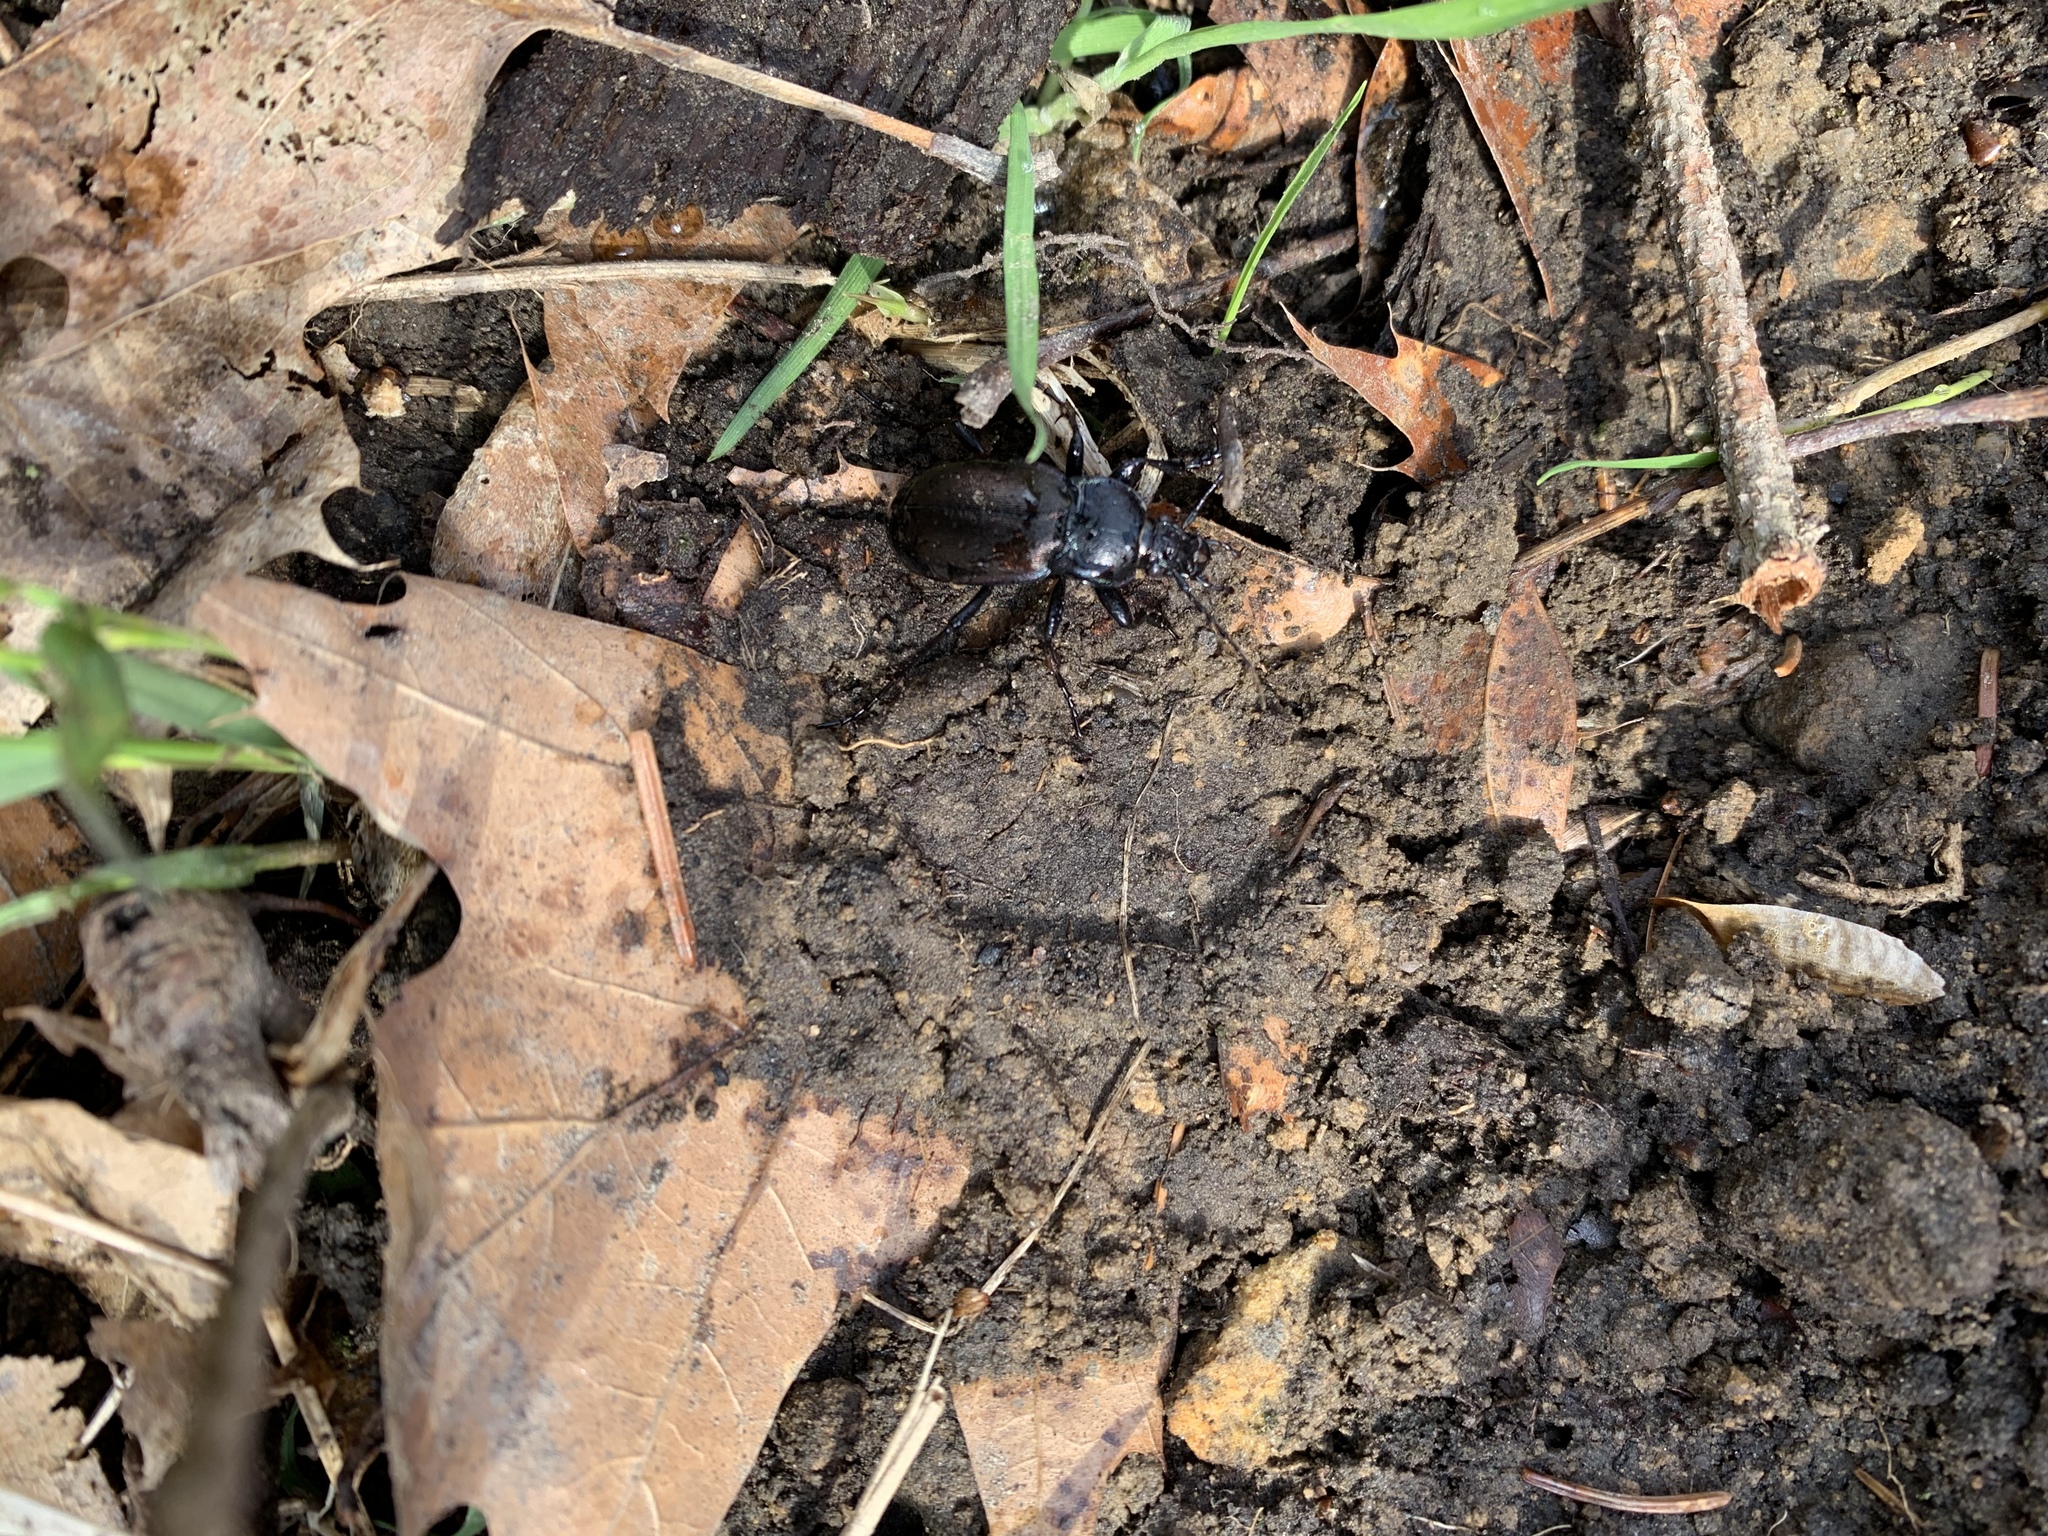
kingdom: Animalia
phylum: Arthropoda
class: Insecta
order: Coleoptera
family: Carabidae
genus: Carabus
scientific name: Carabus nemoralis
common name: European ground beetle
